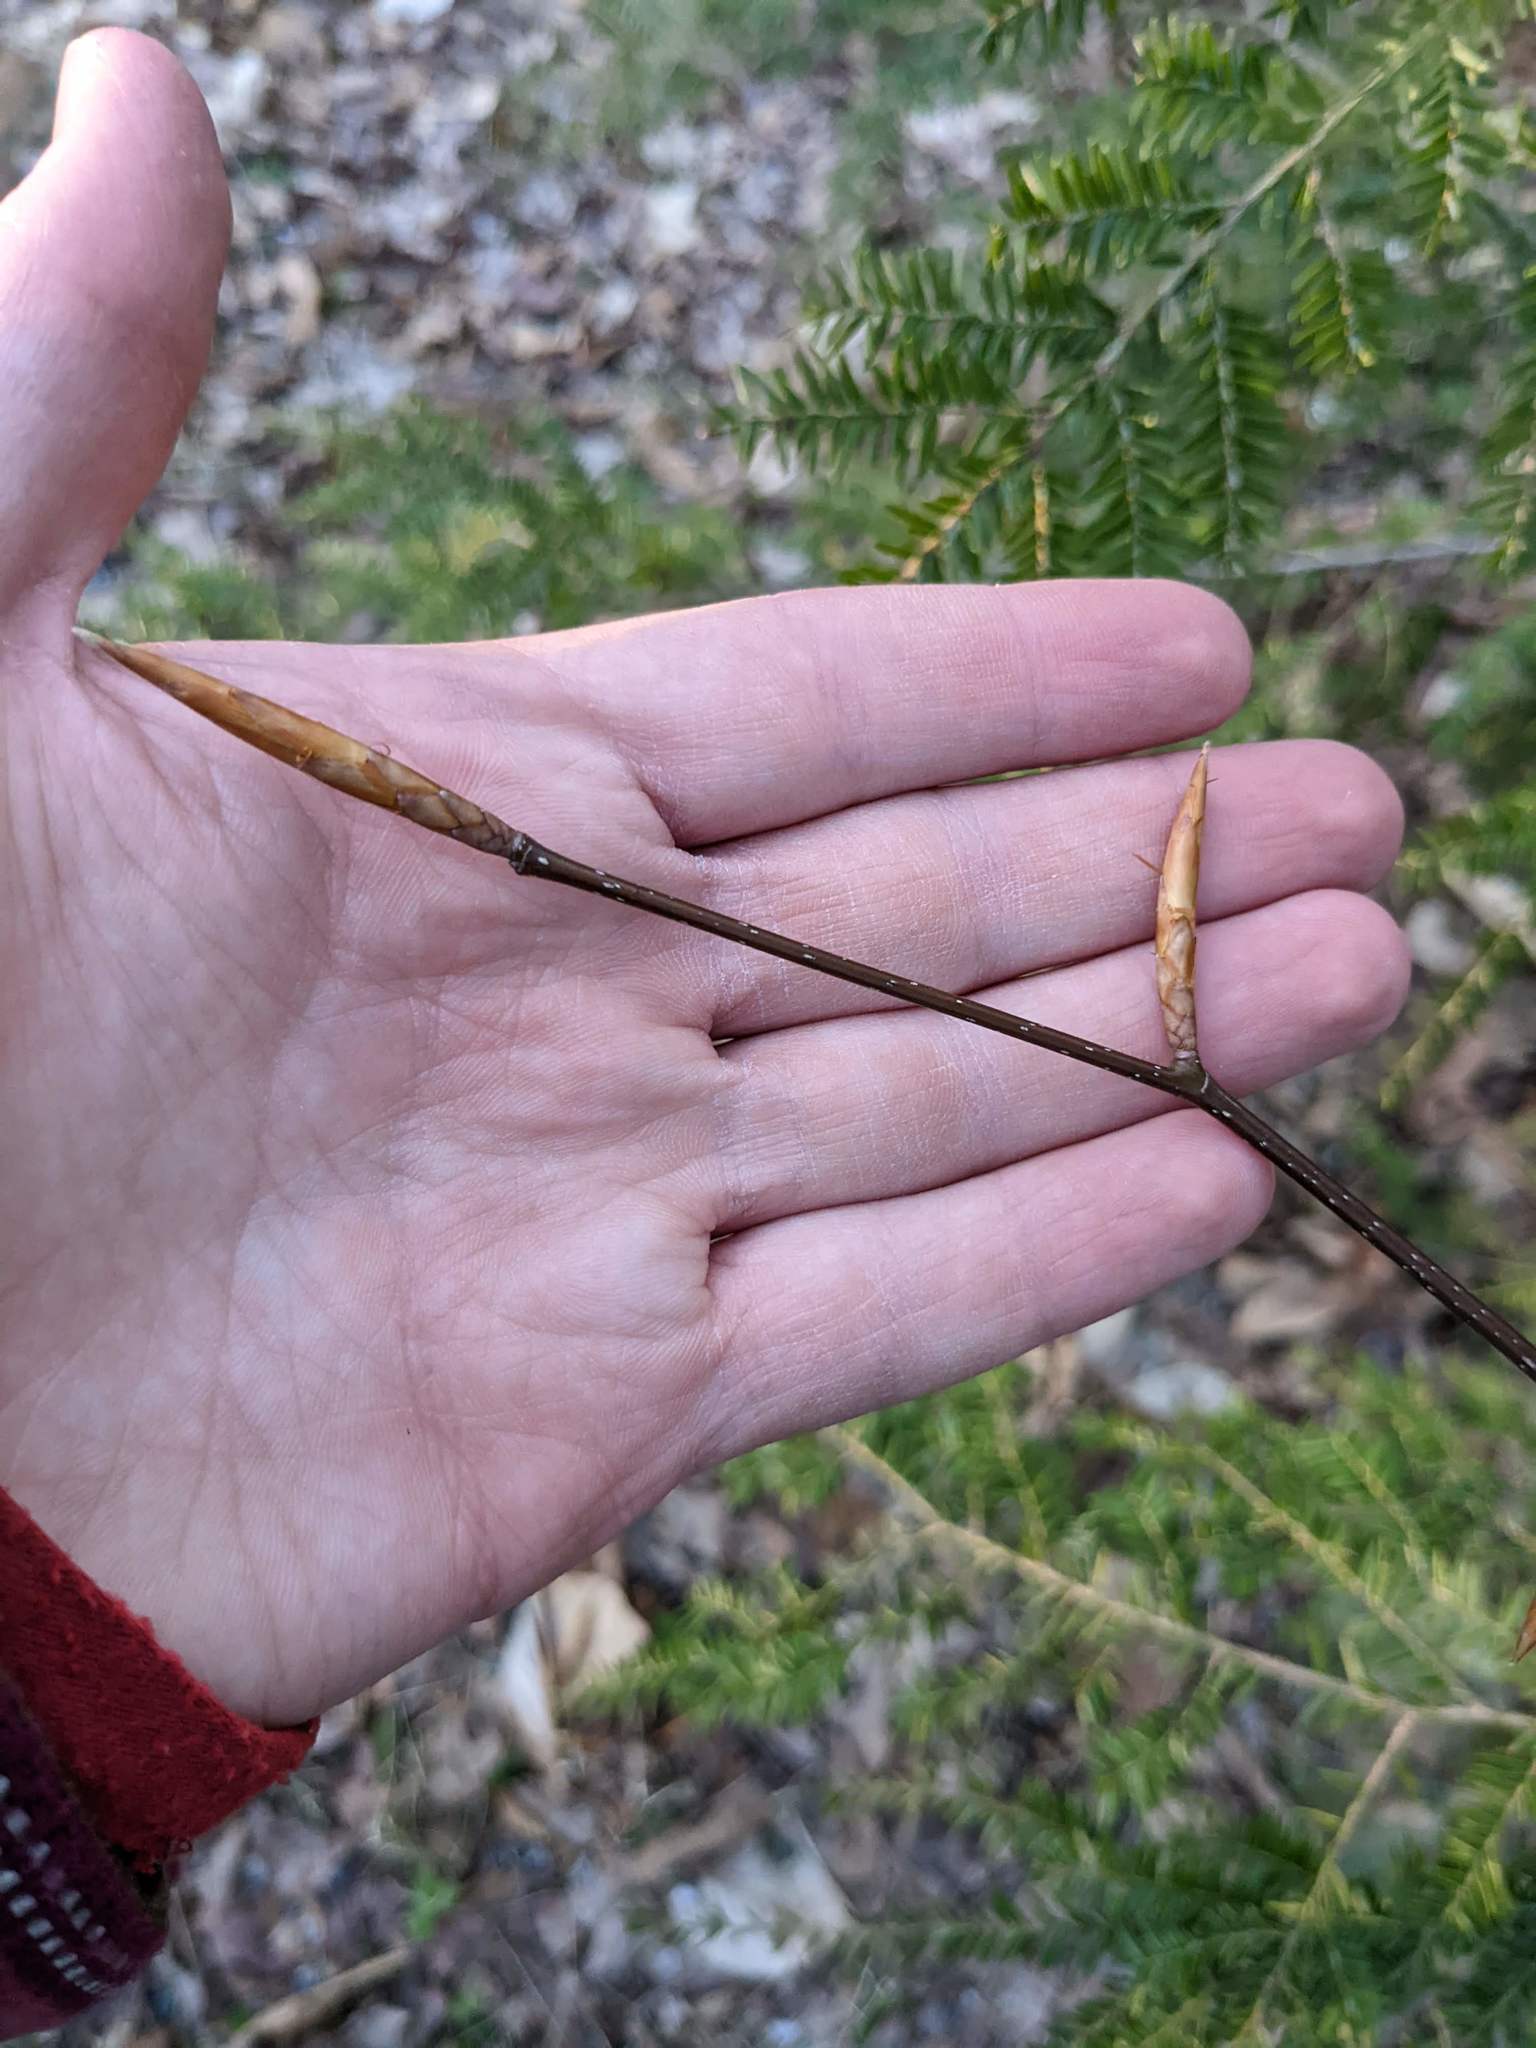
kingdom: Plantae
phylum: Tracheophyta
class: Magnoliopsida
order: Fagales
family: Fagaceae
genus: Fagus
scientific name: Fagus grandifolia
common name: American beech
